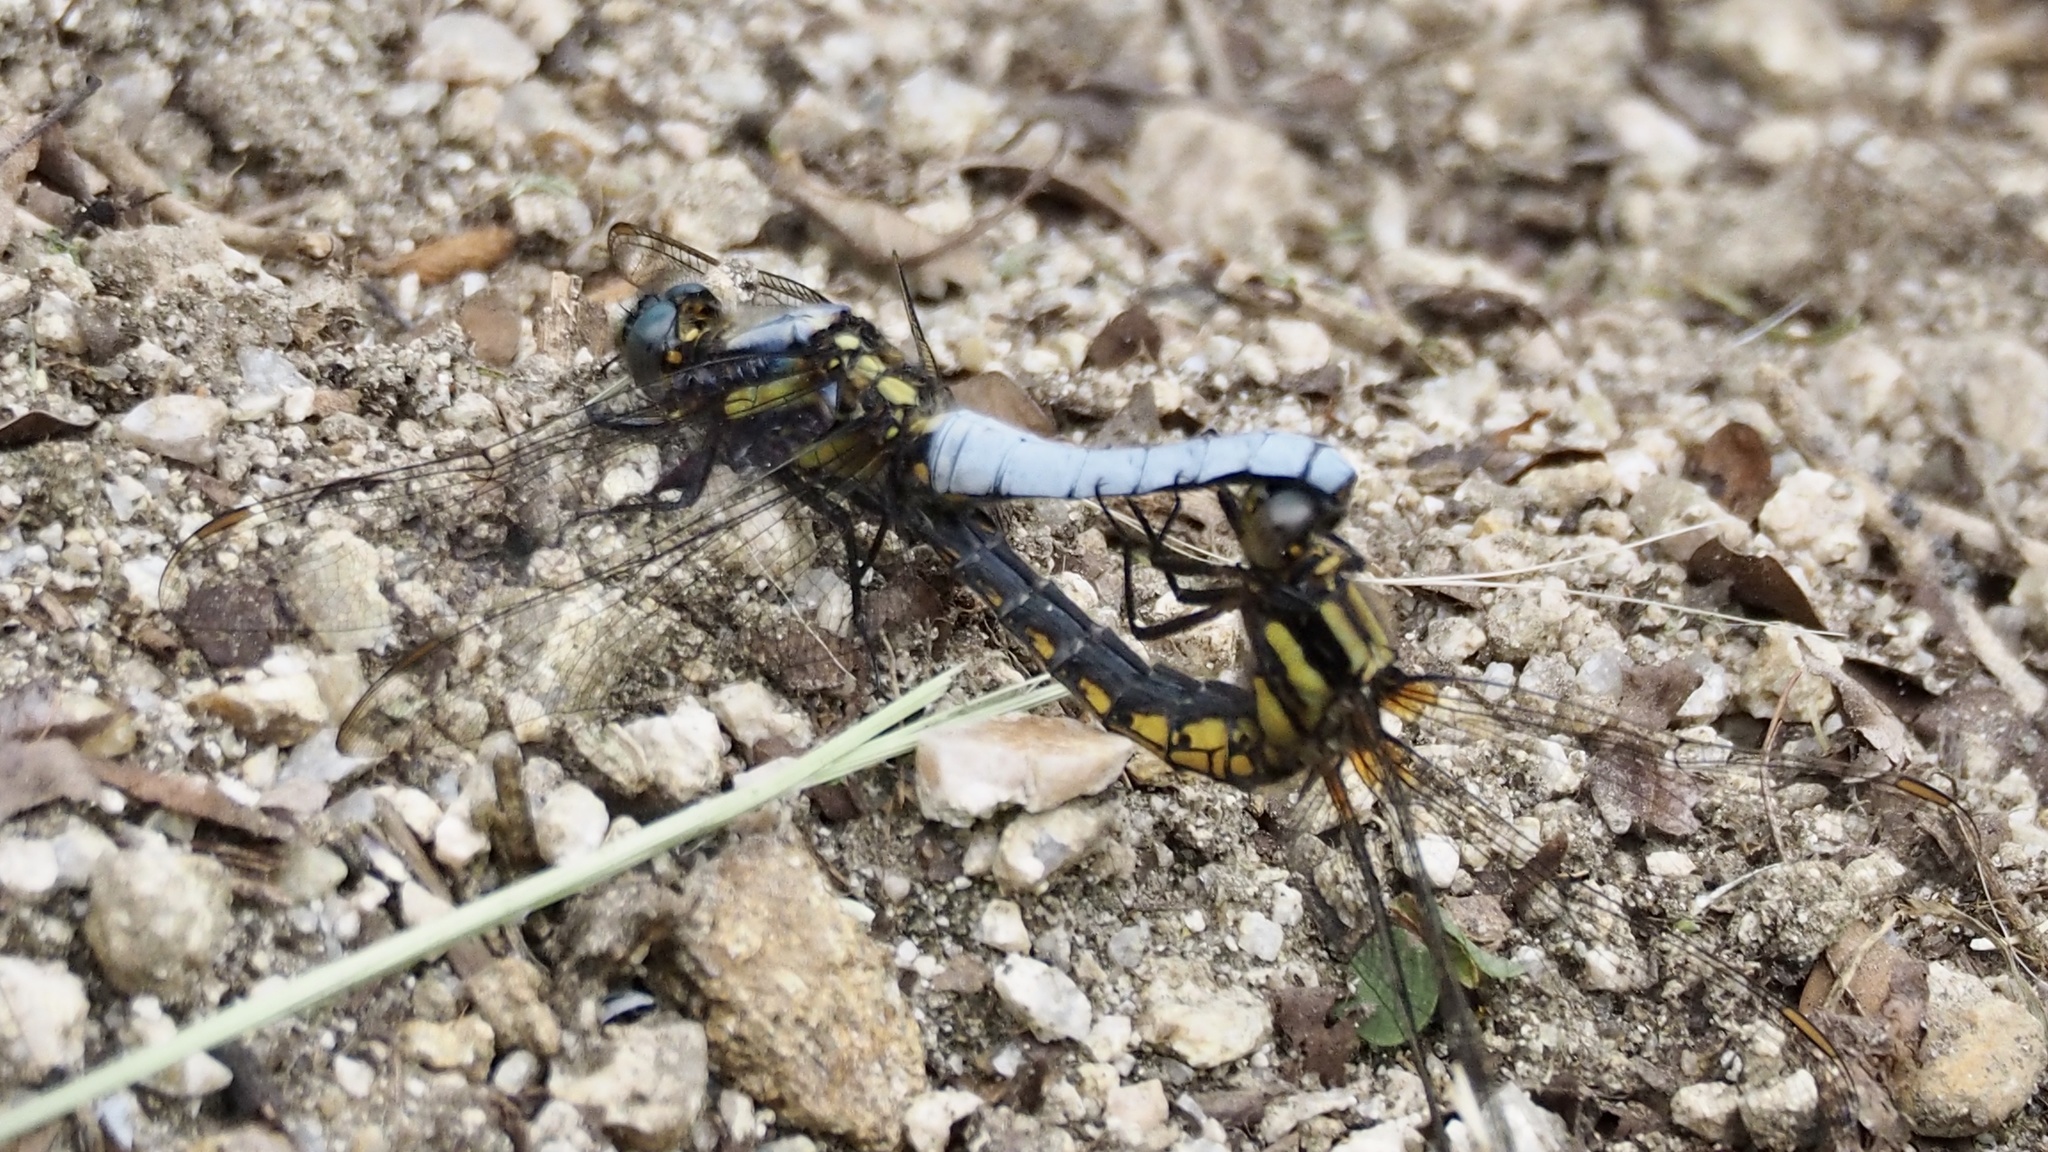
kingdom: Animalia
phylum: Arthropoda
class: Insecta
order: Odonata
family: Libellulidae
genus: Orthetrum
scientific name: Orthetrum japonicum
